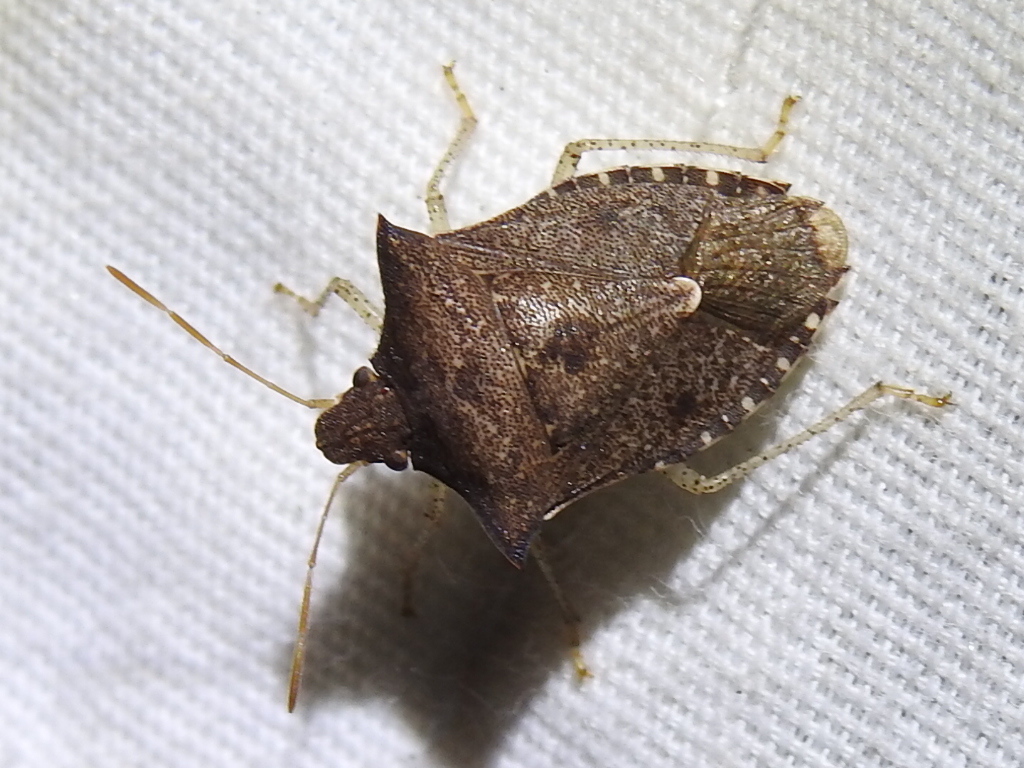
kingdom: Animalia
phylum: Arthropoda
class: Insecta
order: Hemiptera
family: Pentatomidae
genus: Euschistus
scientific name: Euschistus tristigmus
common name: Dusky stink bug
